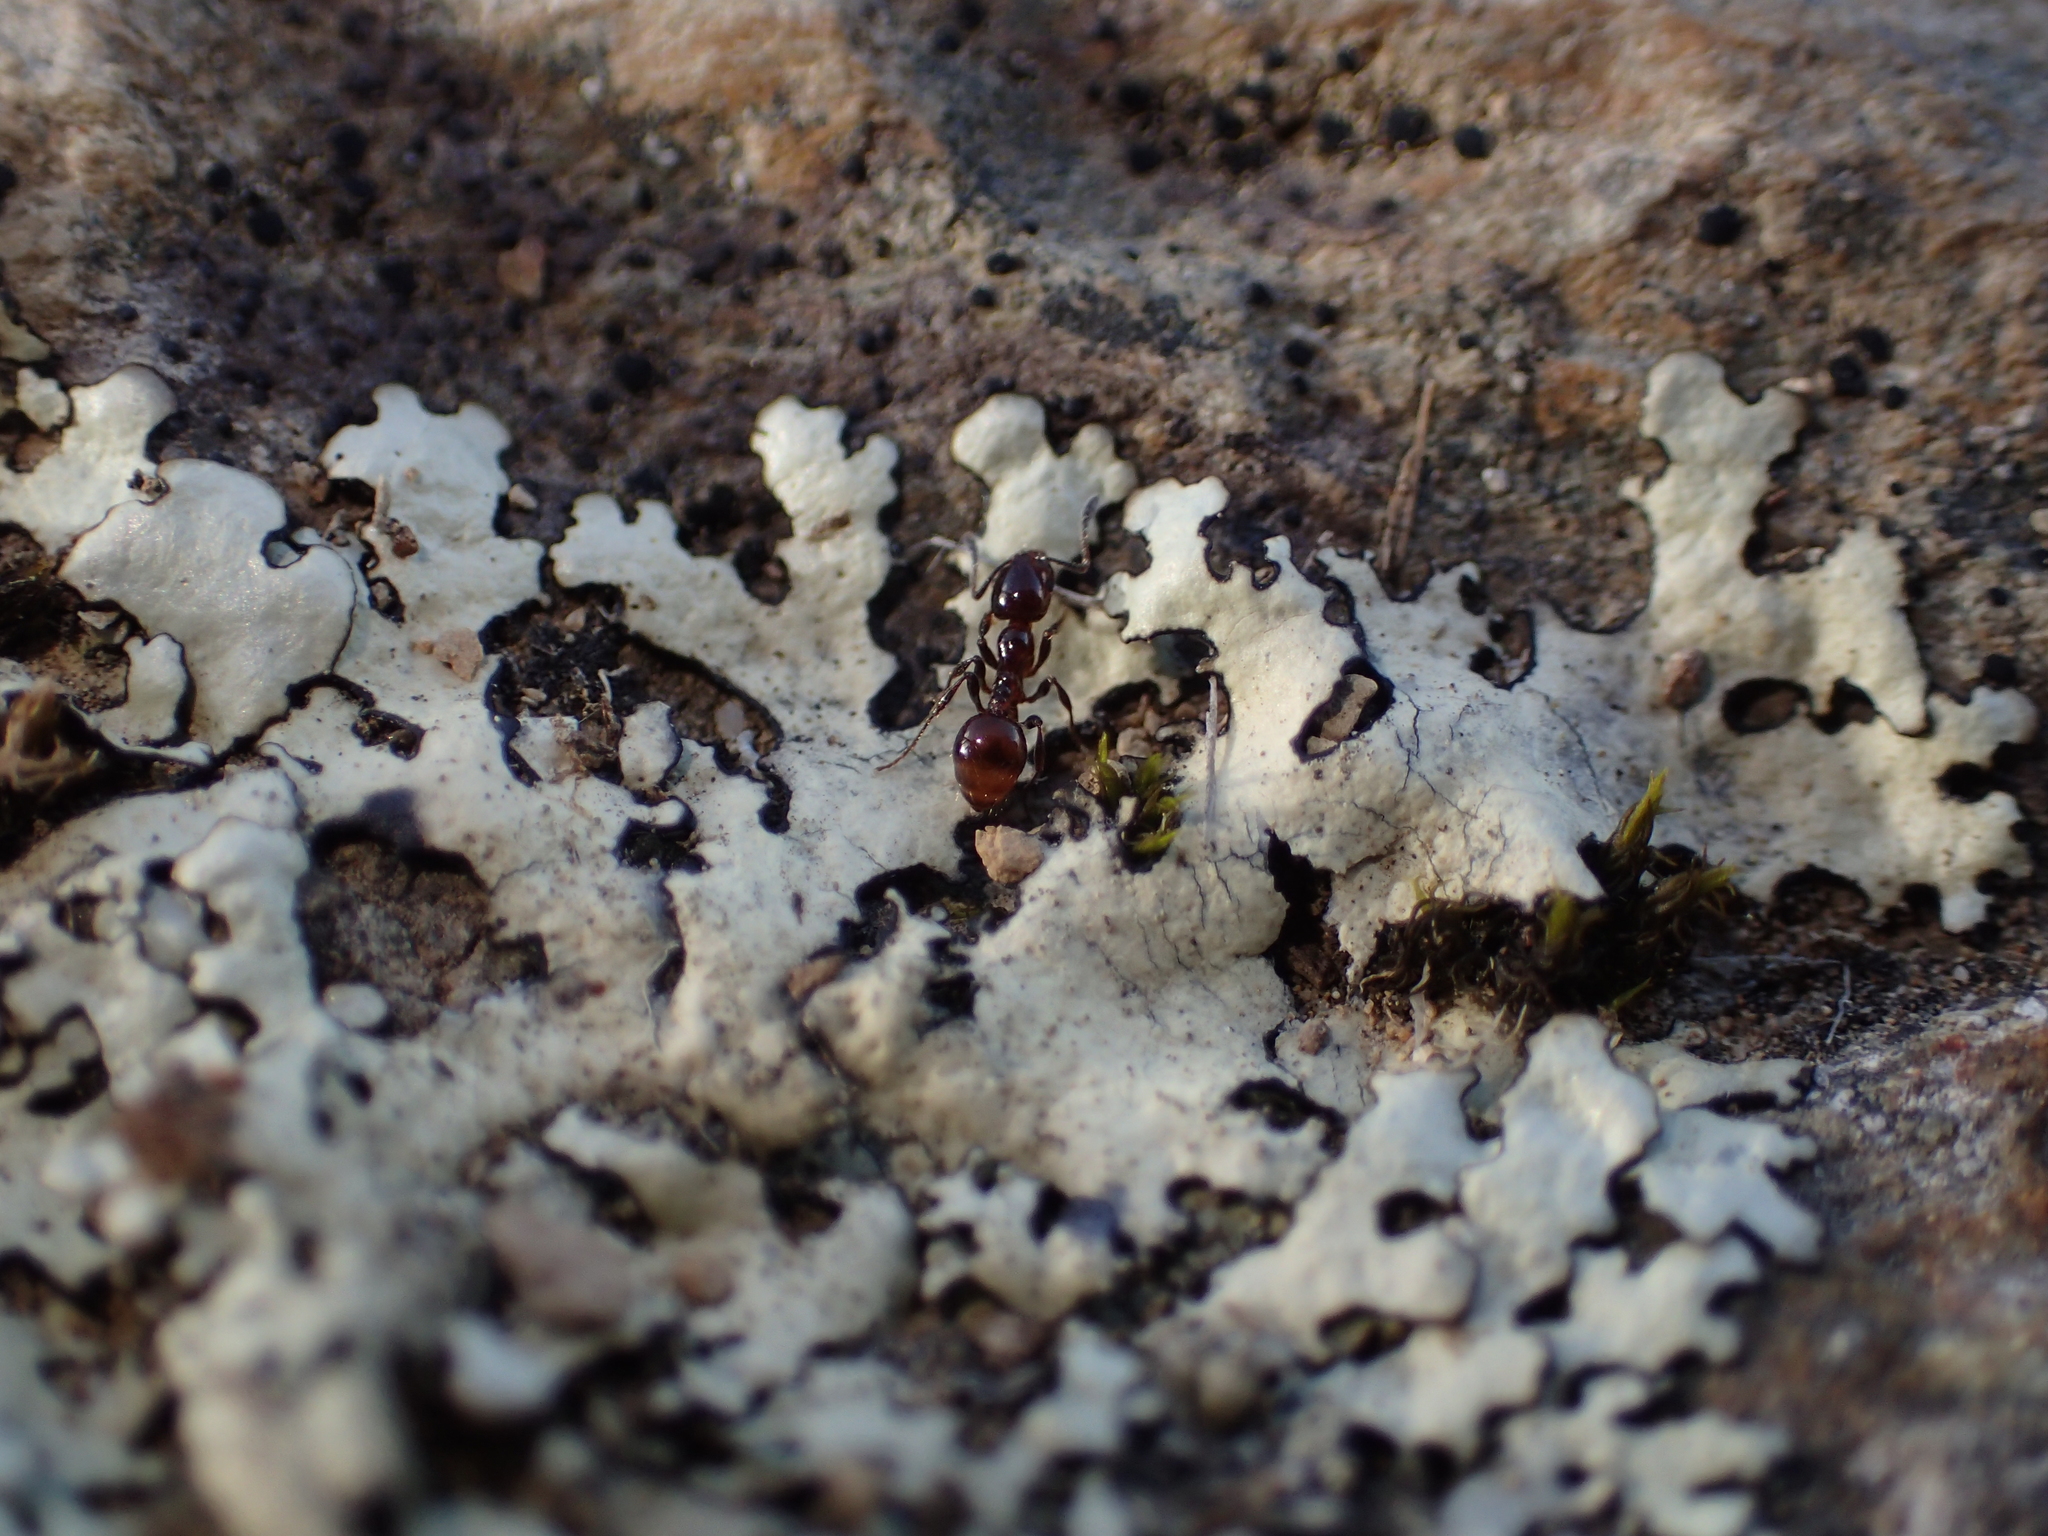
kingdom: Animalia
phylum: Arthropoda
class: Insecta
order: Hymenoptera
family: Formicidae
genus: Monomorium
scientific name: Monomorium antarcticum
